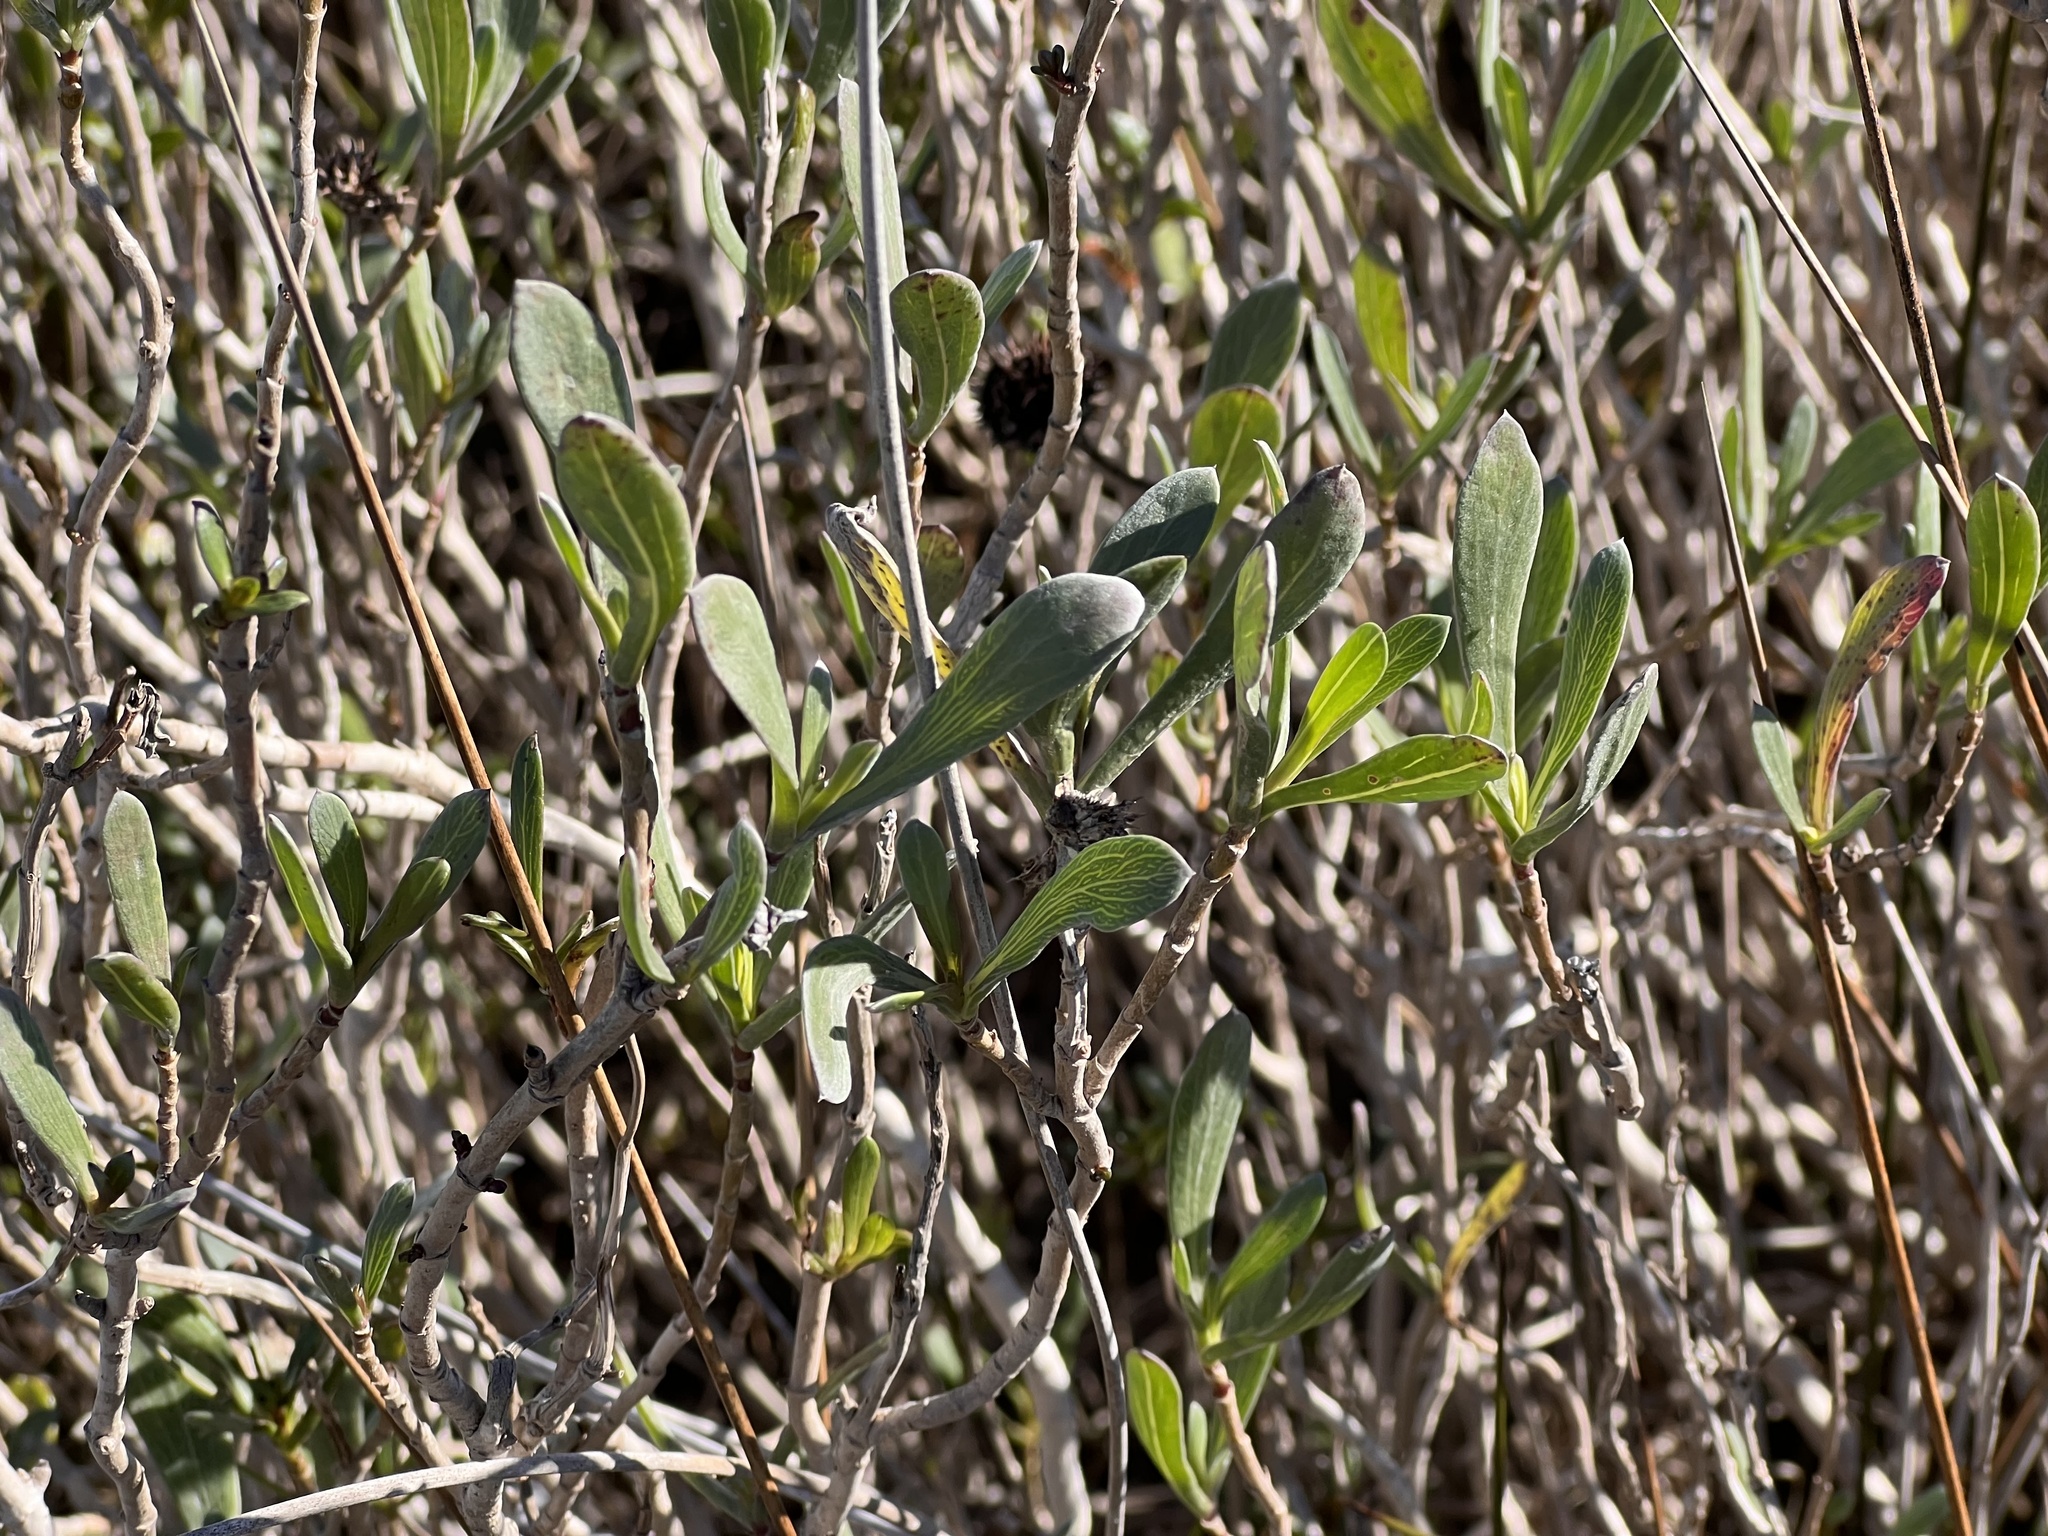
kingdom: Plantae
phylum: Tracheophyta
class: Magnoliopsida
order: Asterales
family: Asteraceae
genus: Borrichia
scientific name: Borrichia frutescens
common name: Sea oxeye
